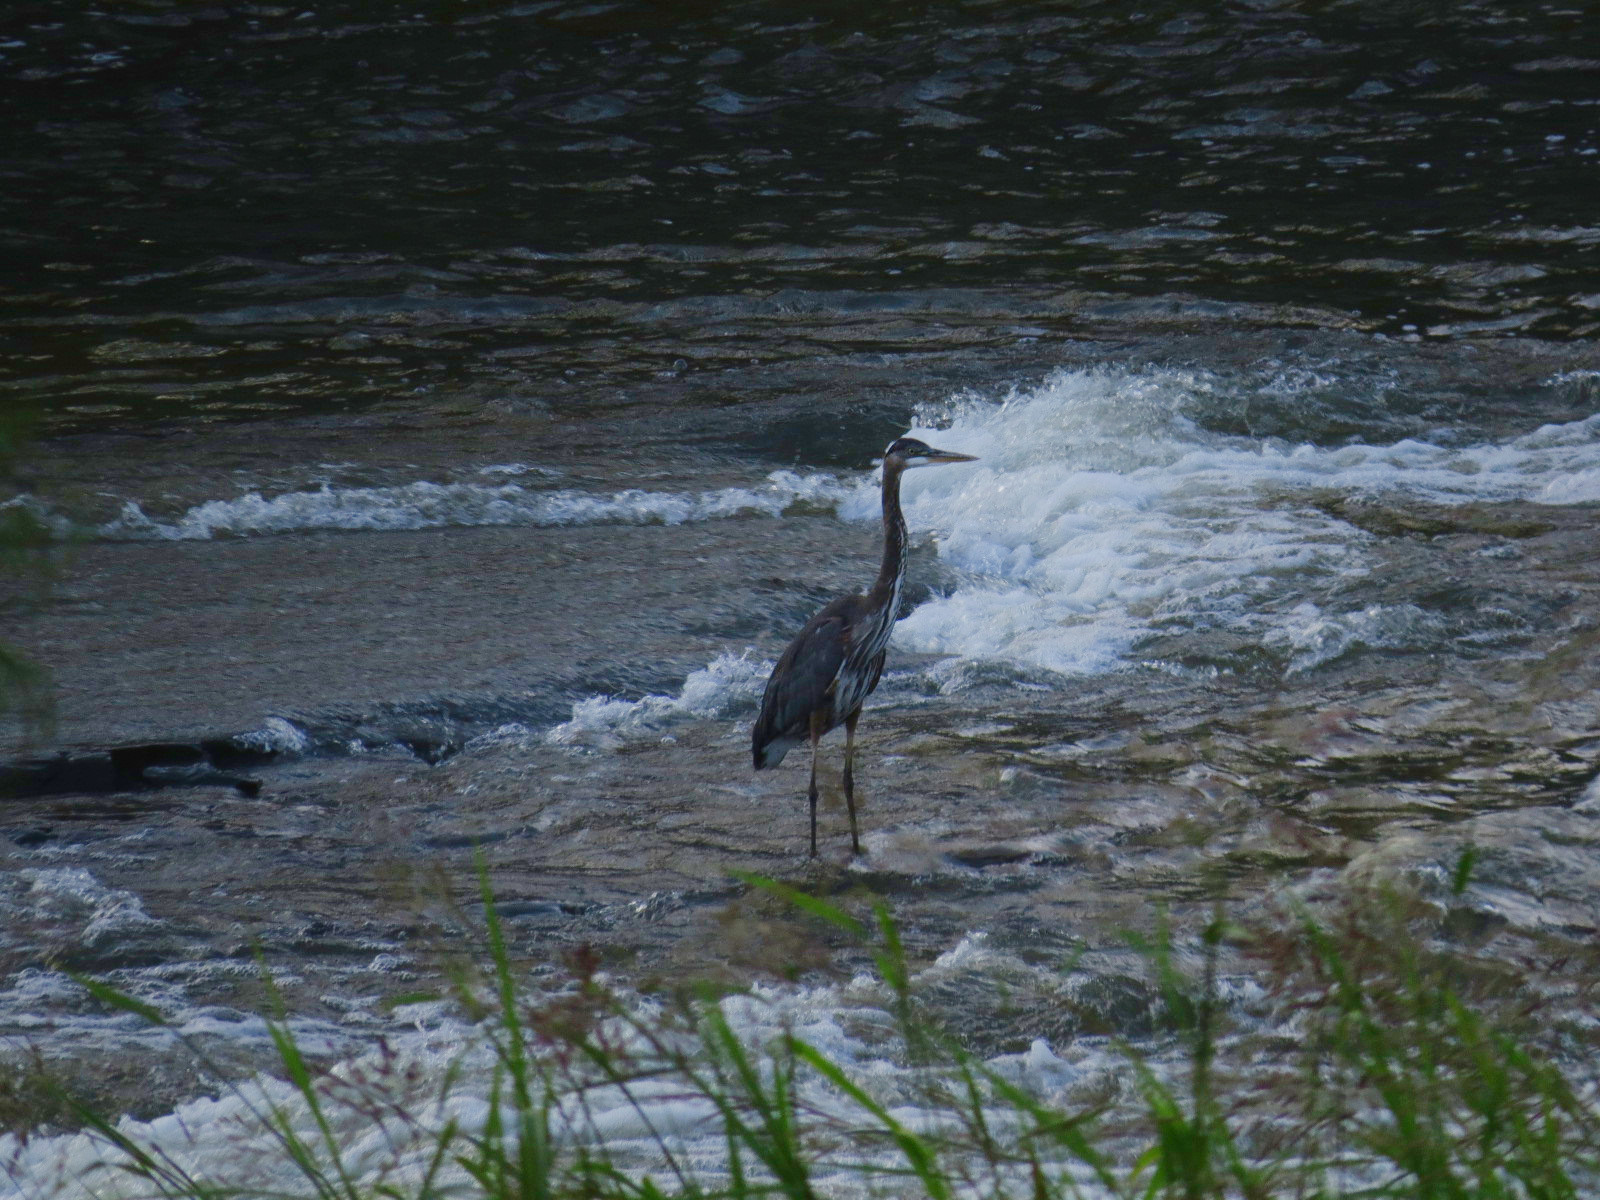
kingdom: Animalia
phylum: Chordata
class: Aves
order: Pelecaniformes
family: Ardeidae
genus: Ardea
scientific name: Ardea herodias
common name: Great blue heron
